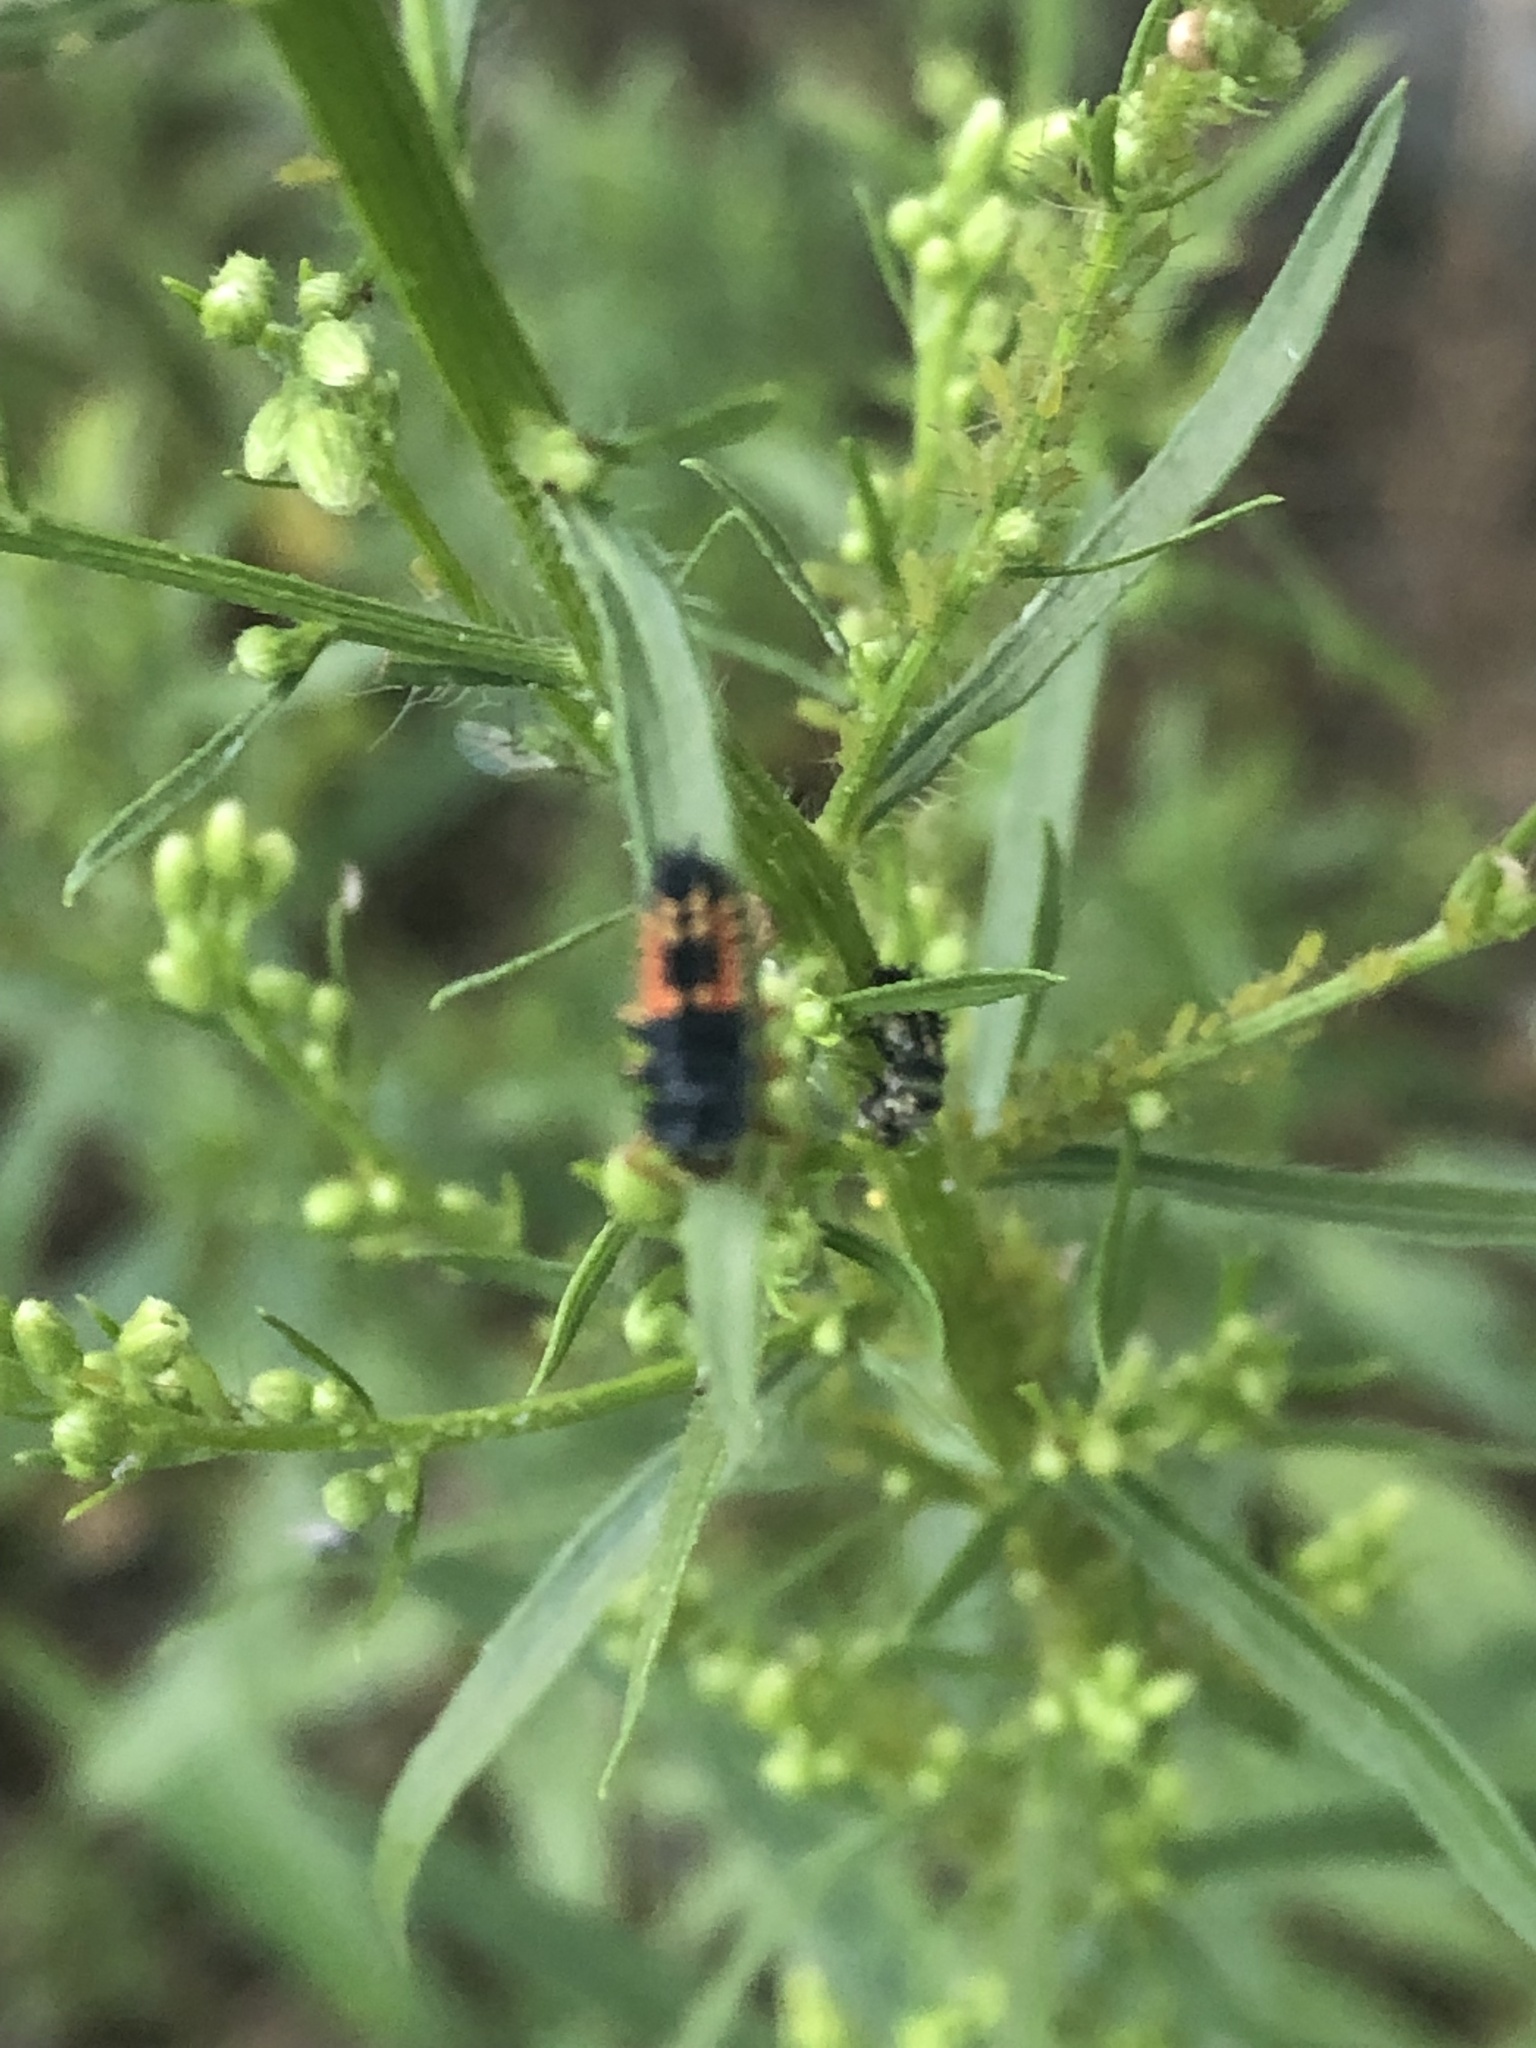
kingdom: Animalia
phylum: Arthropoda
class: Insecta
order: Coleoptera
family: Coccinellidae
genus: Harmonia
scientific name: Harmonia axyridis
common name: Harlequin ladybird
